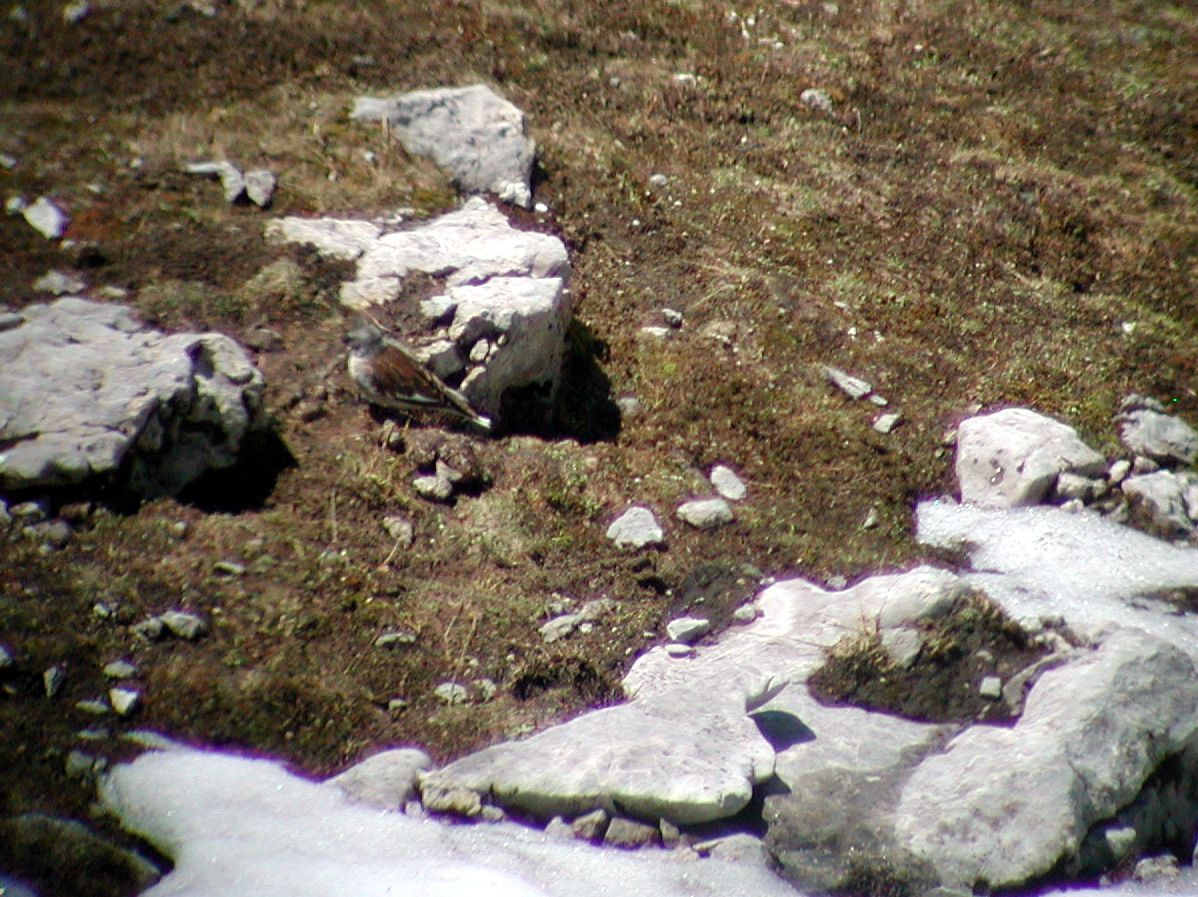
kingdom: Animalia
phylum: Chordata
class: Aves
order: Passeriformes
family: Passeridae
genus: Montifringilla
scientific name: Montifringilla nivalis
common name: White-winged snowfinch
